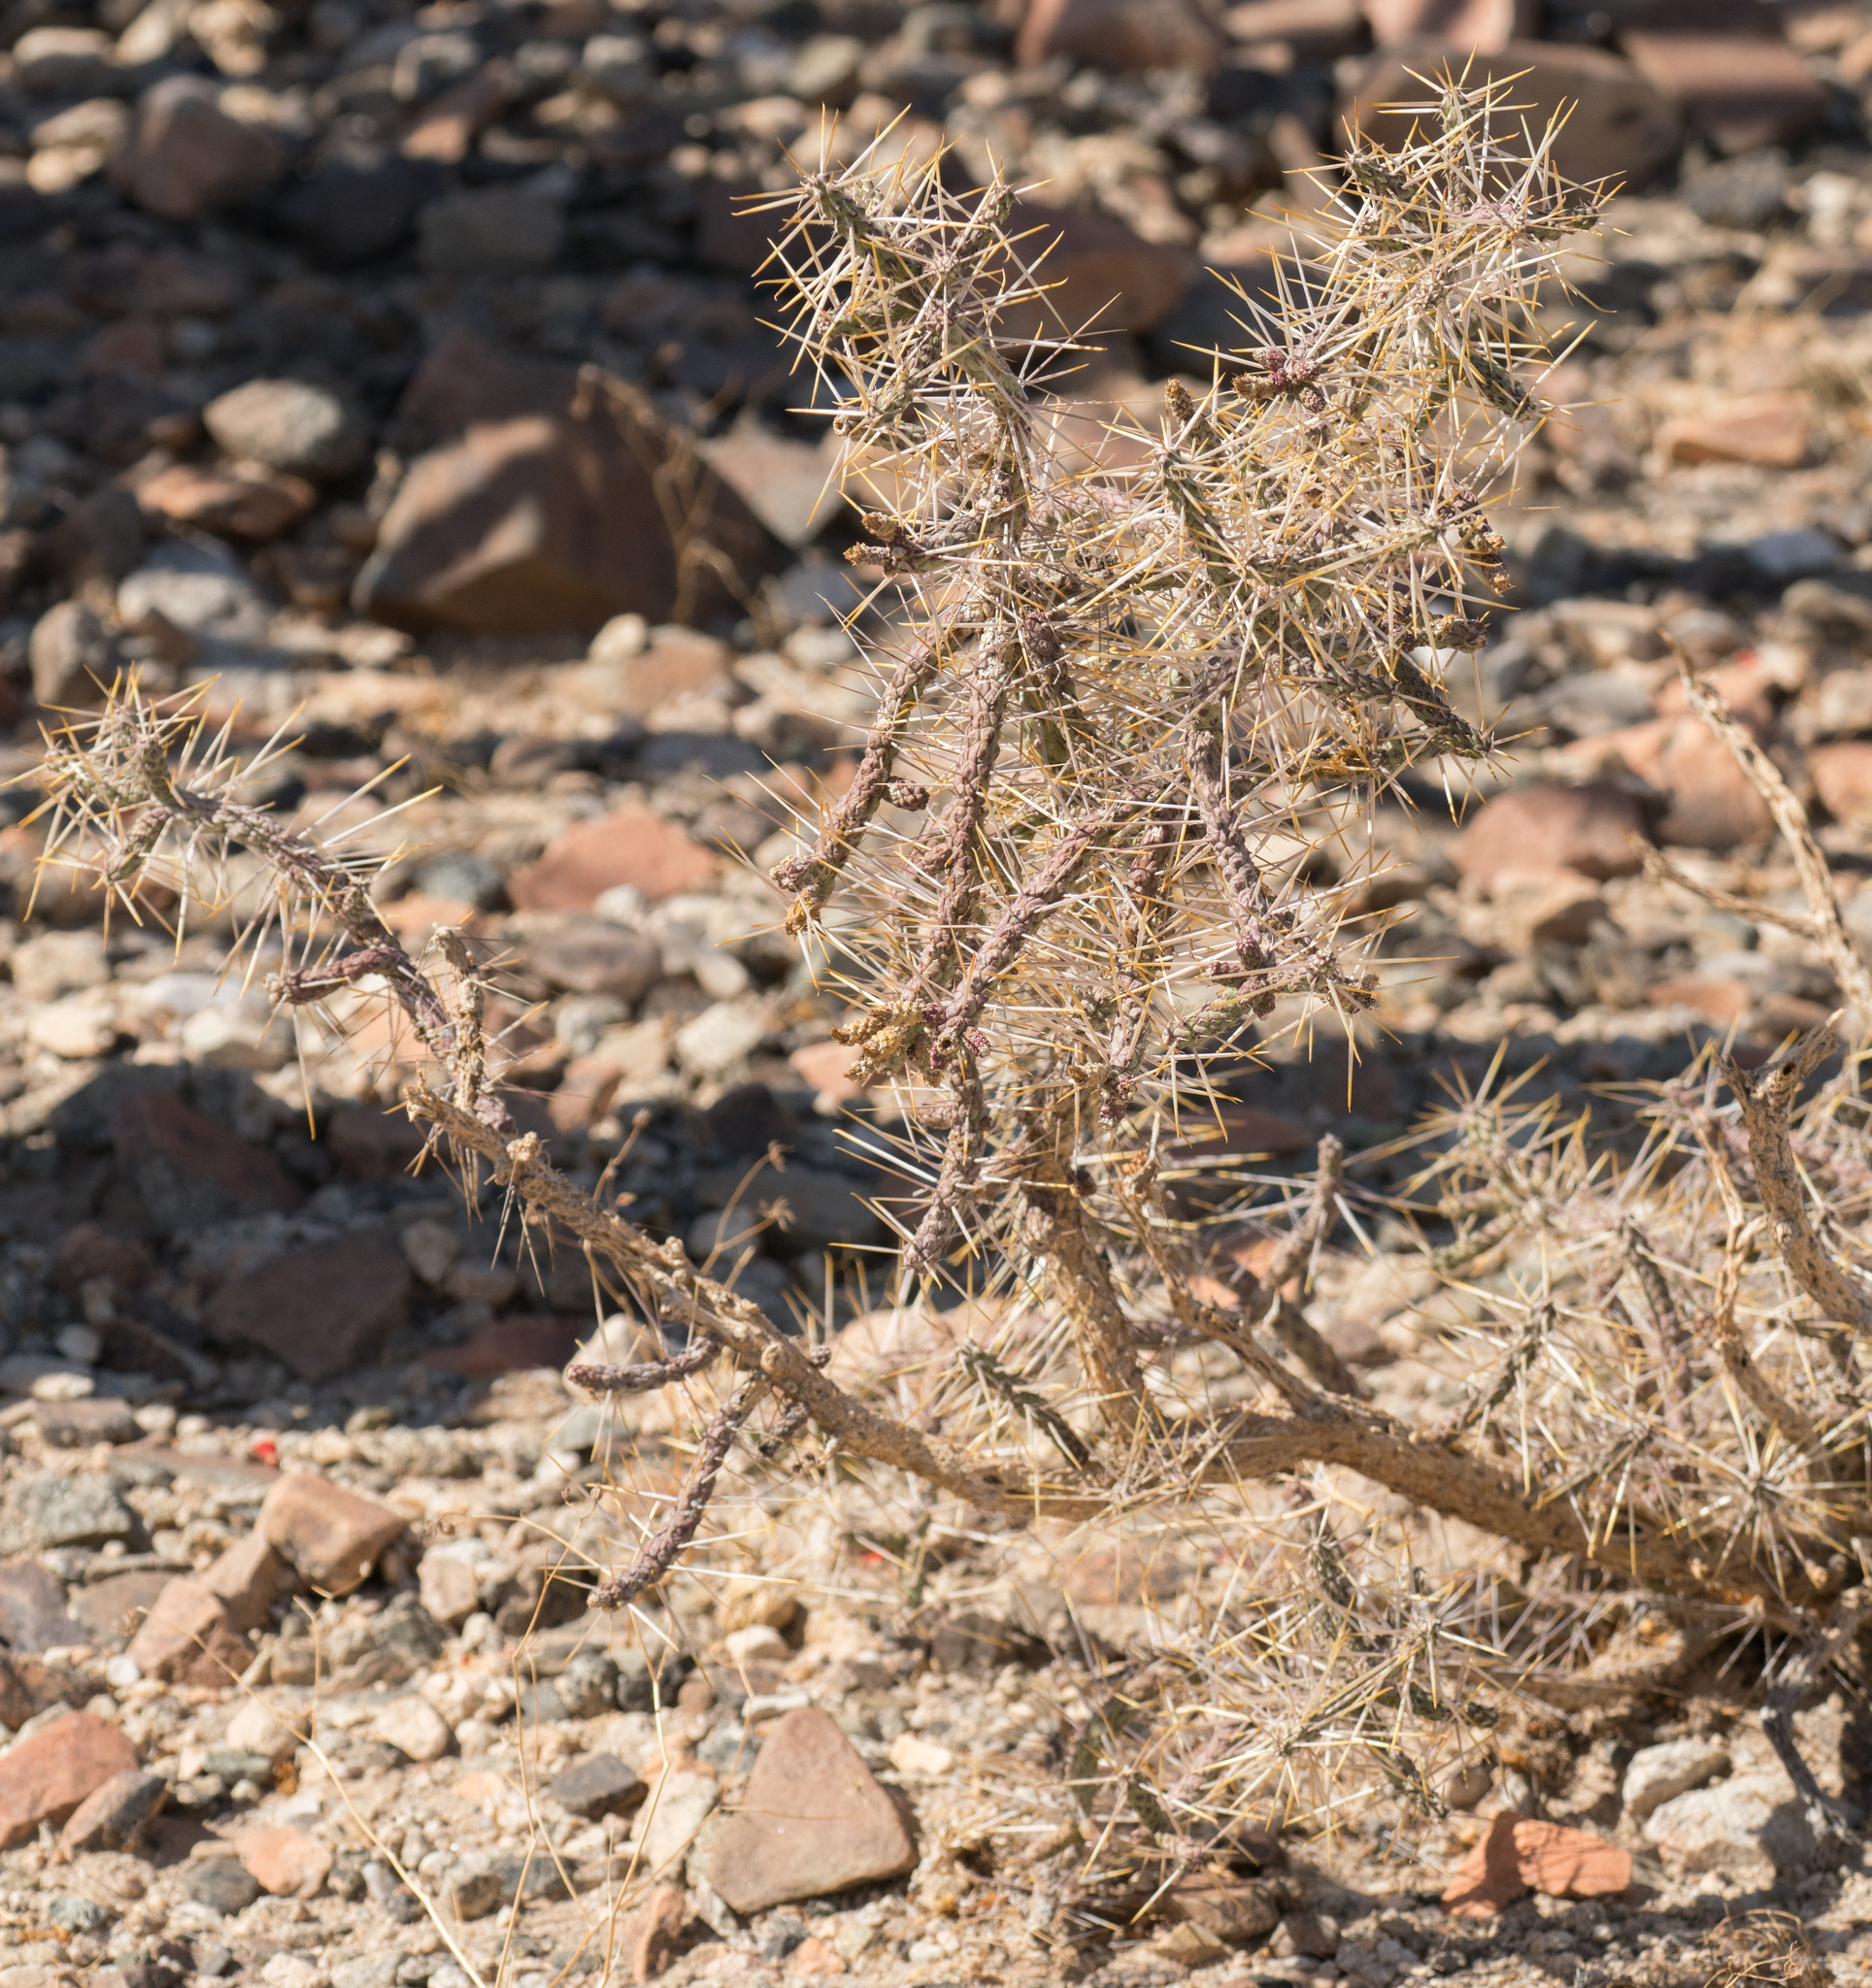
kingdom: Plantae
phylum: Tracheophyta
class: Magnoliopsida
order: Caryophyllales
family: Cactaceae
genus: Cylindropuntia
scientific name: Cylindropuntia ramosissima
